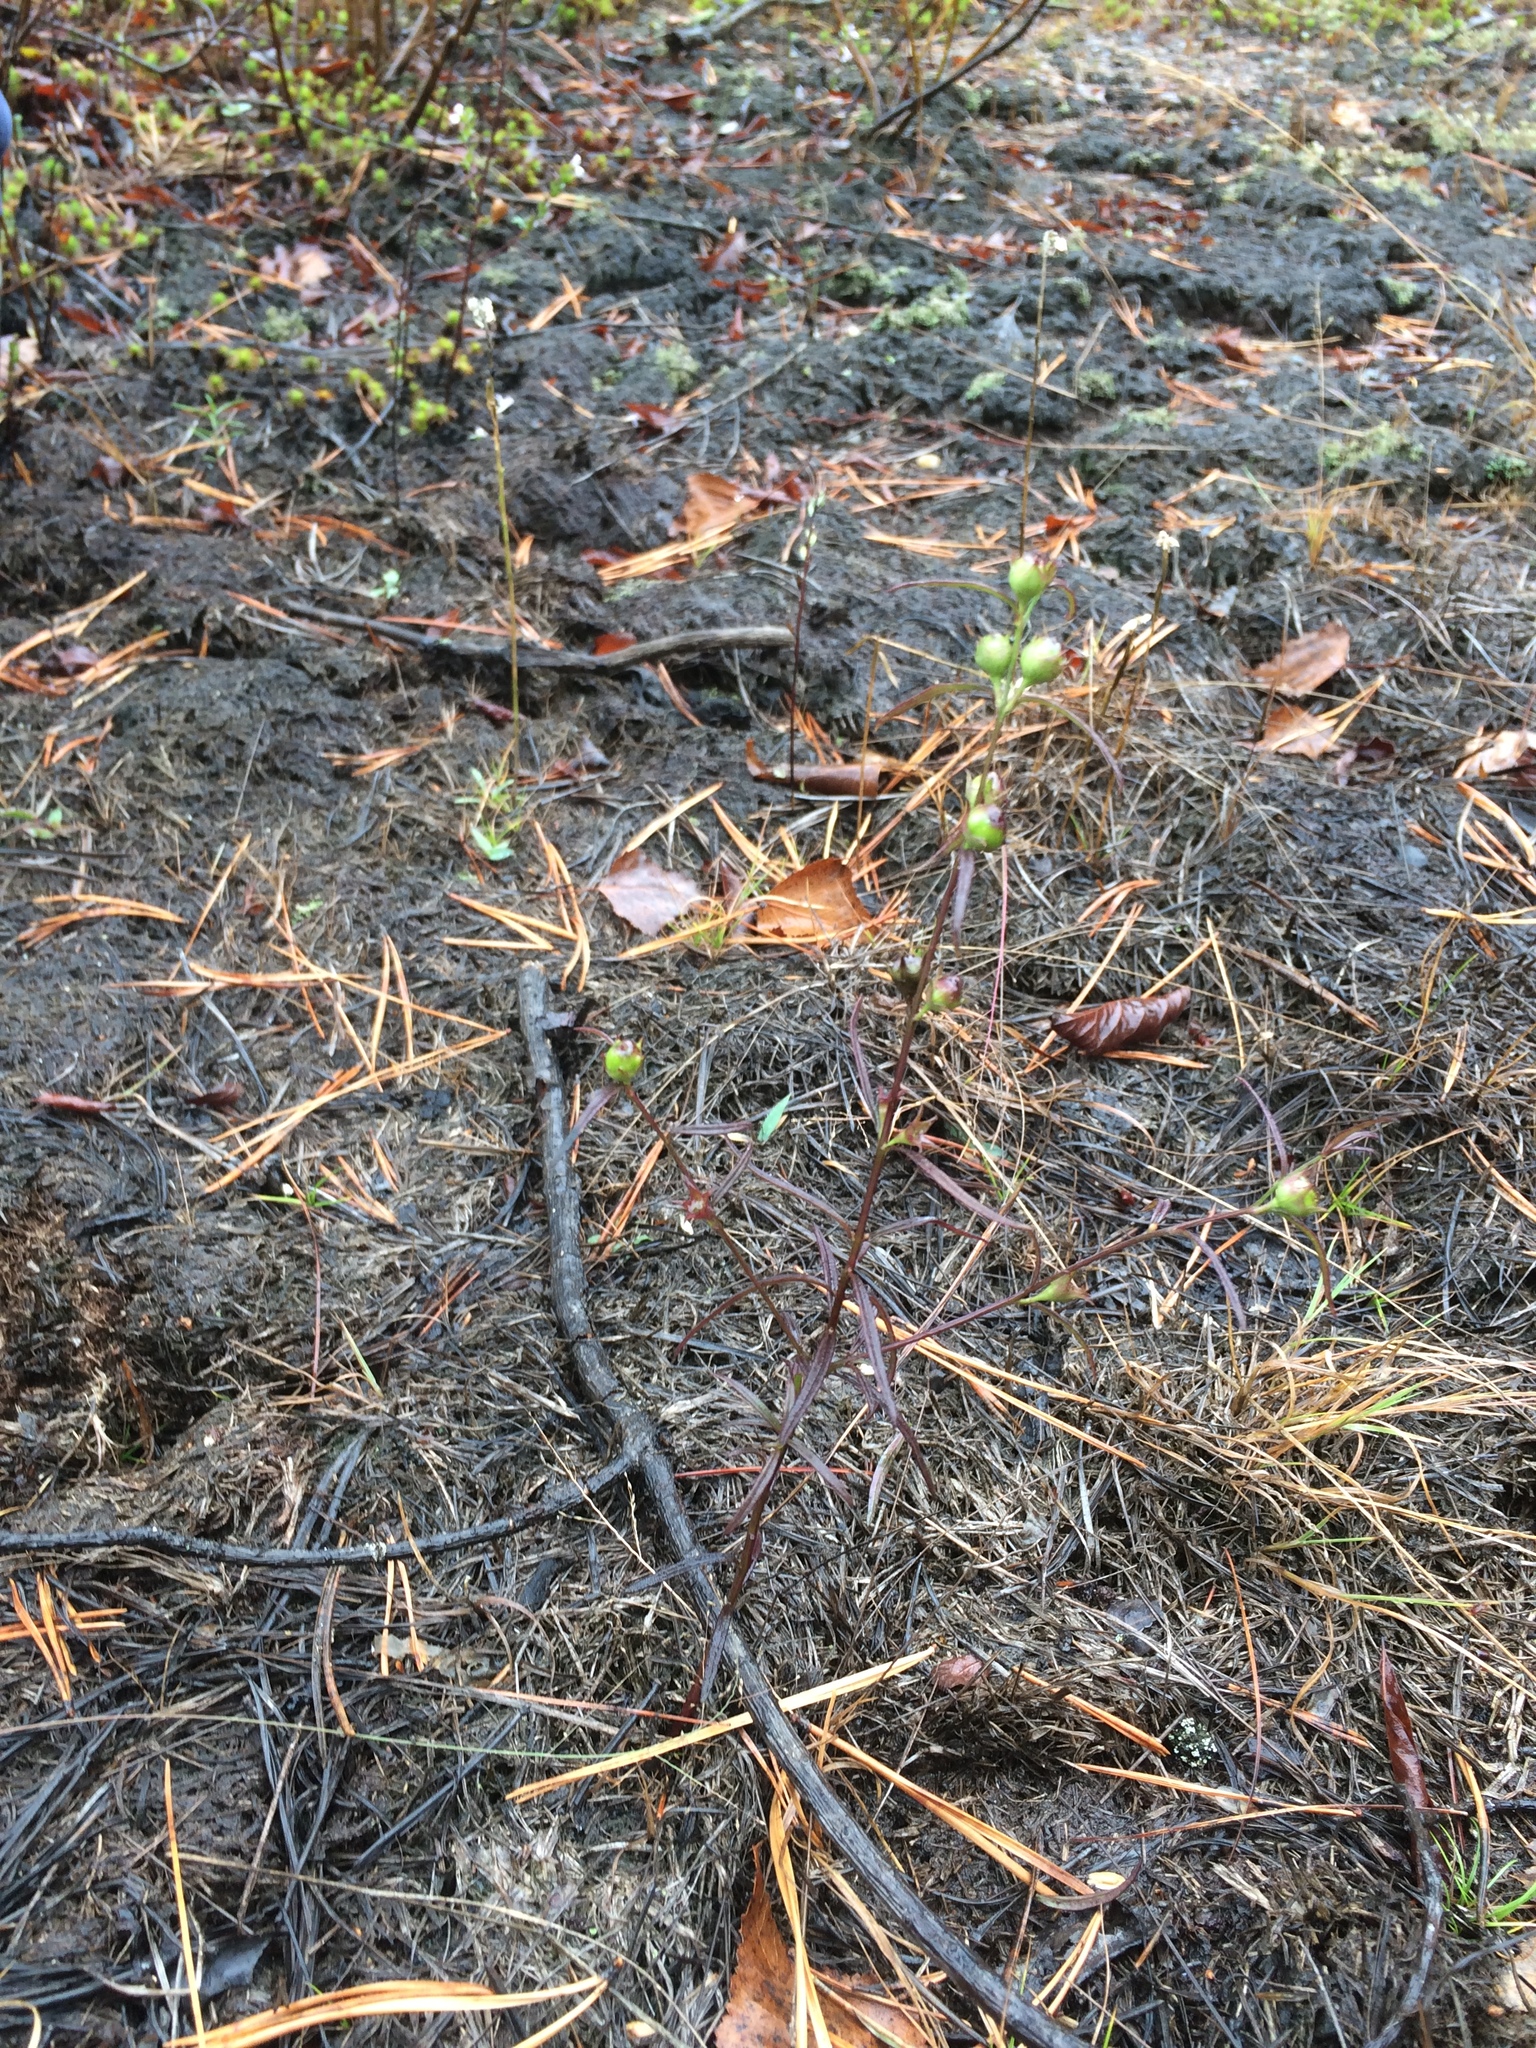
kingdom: Plantae
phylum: Tracheophyta
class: Magnoliopsida
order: Lamiales
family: Orobanchaceae
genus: Agalinis
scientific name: Agalinis purpurea
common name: Purple false foxglove
